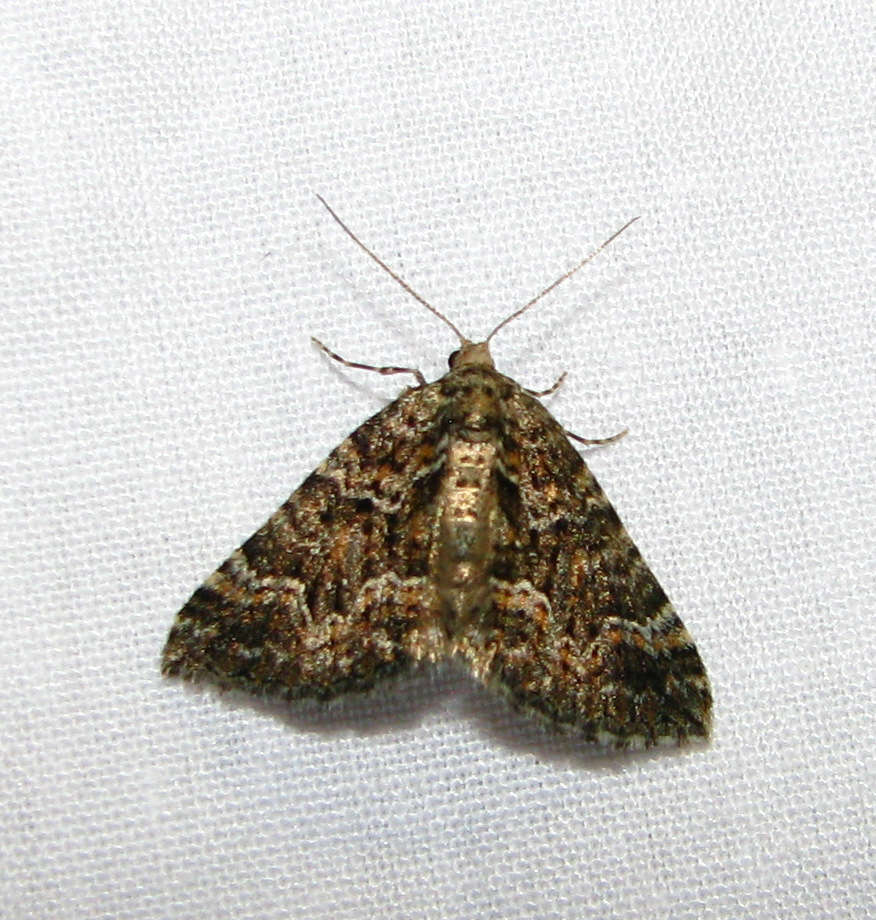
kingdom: Animalia
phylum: Arthropoda
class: Insecta
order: Lepidoptera
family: Geometridae
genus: Xanthorhoe
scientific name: Xanthorhoe xanthospila
